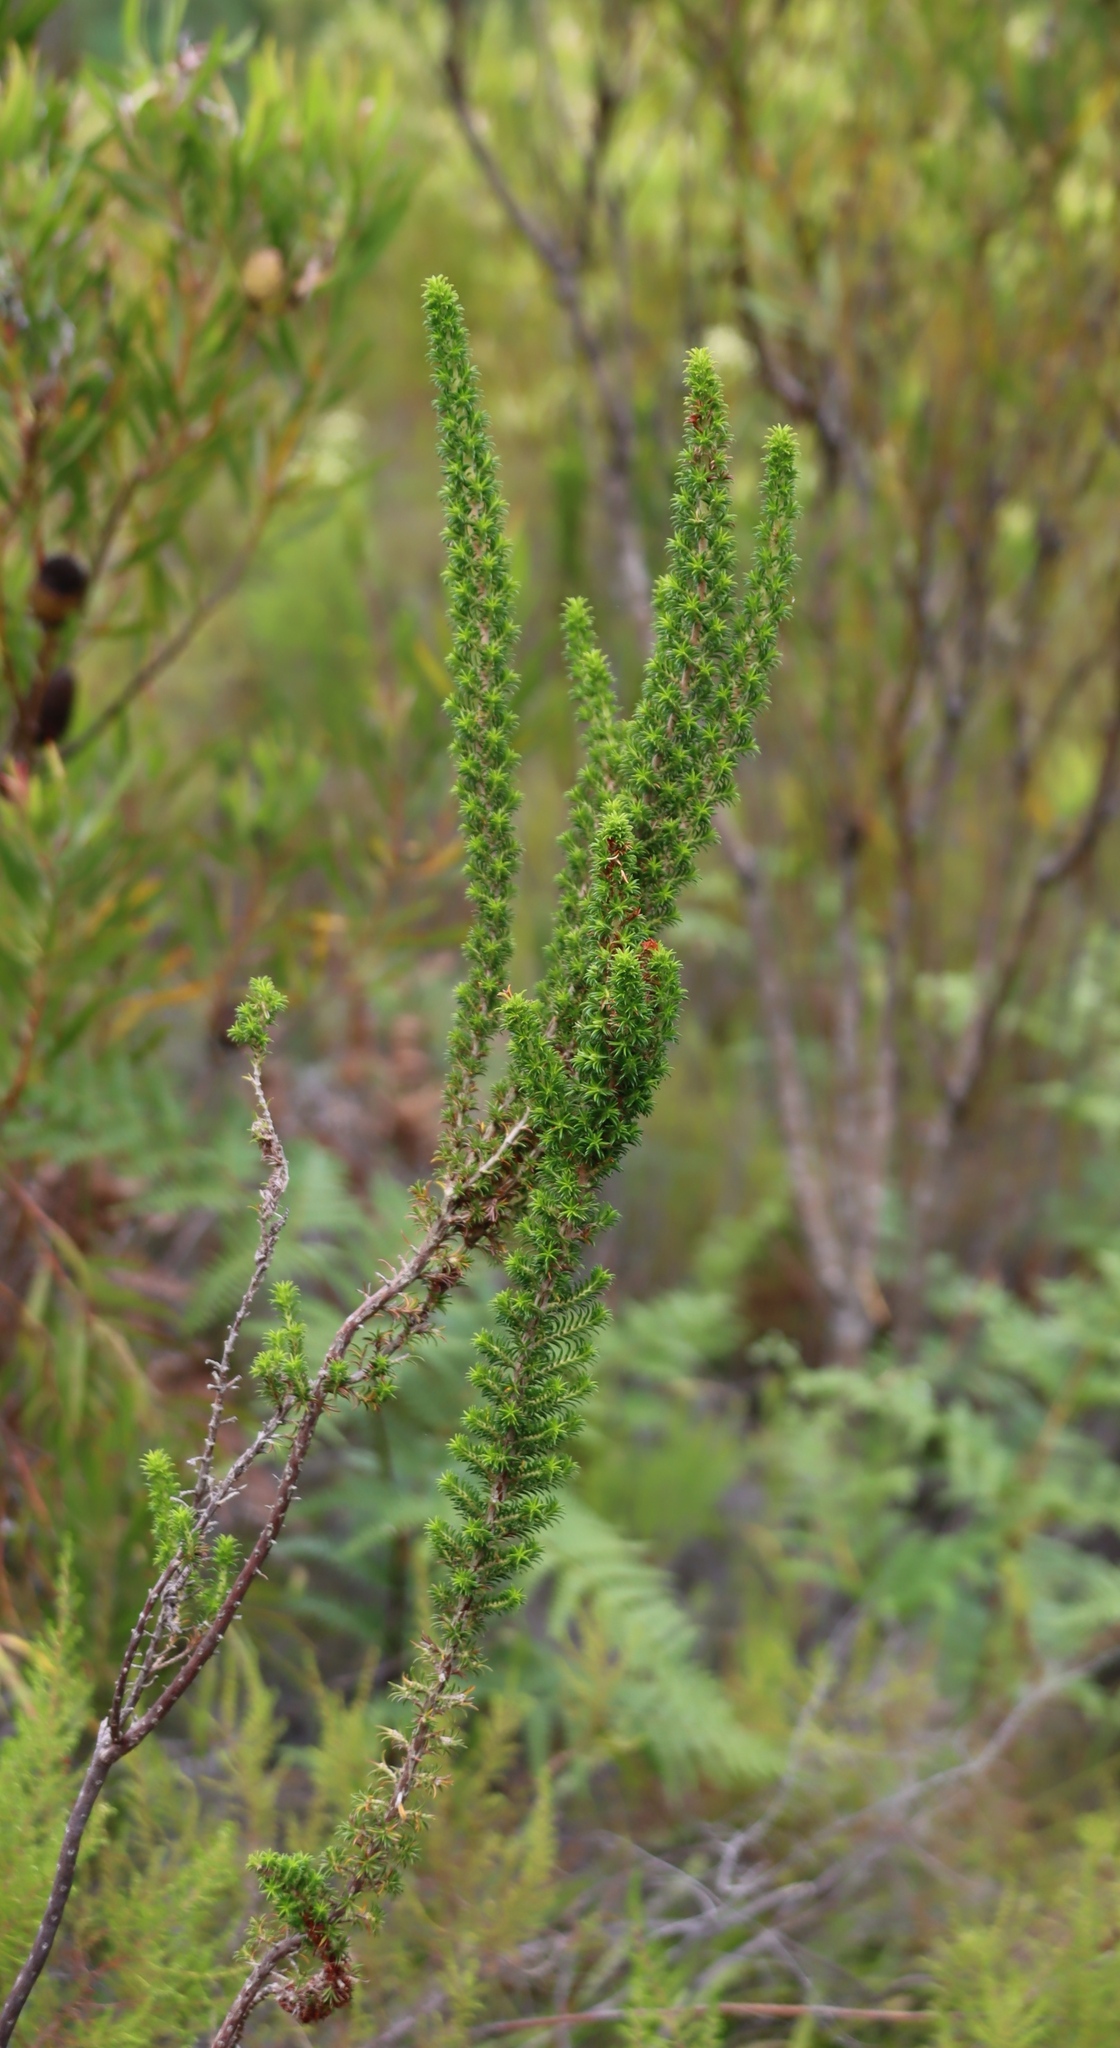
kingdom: Plantae
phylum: Tracheophyta
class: Magnoliopsida
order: Ericales
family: Ericaceae
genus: Erica
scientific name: Erica coccinea
